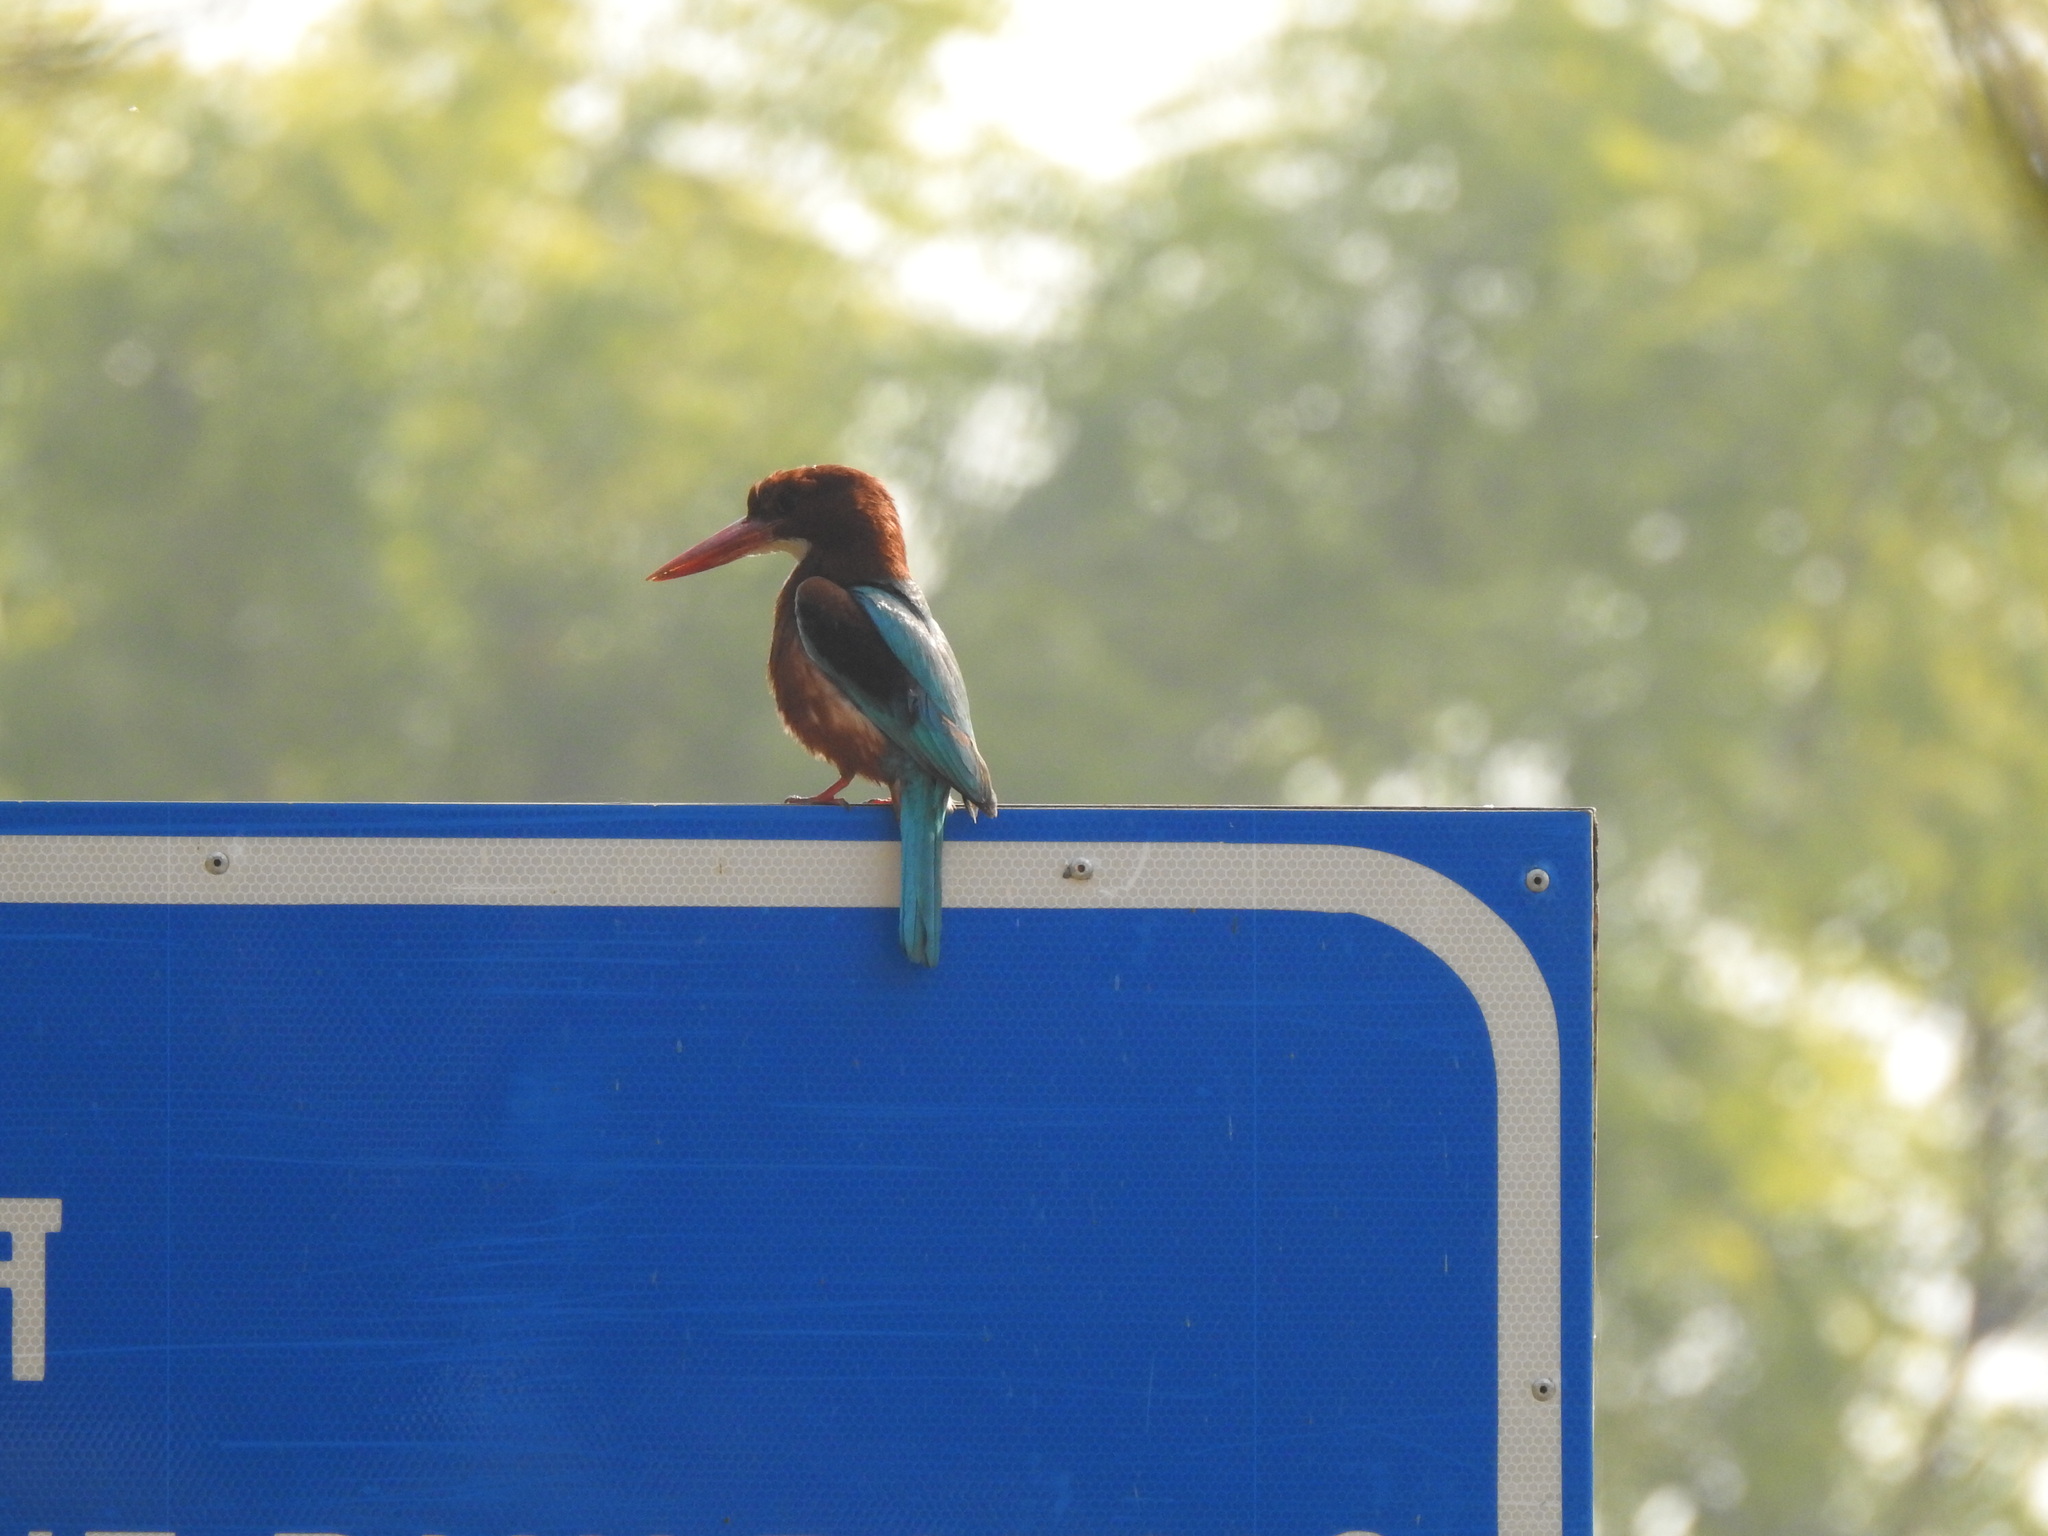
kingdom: Animalia
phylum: Chordata
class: Aves
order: Coraciiformes
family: Alcedinidae
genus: Halcyon
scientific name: Halcyon smyrnensis
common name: White-throated kingfisher
